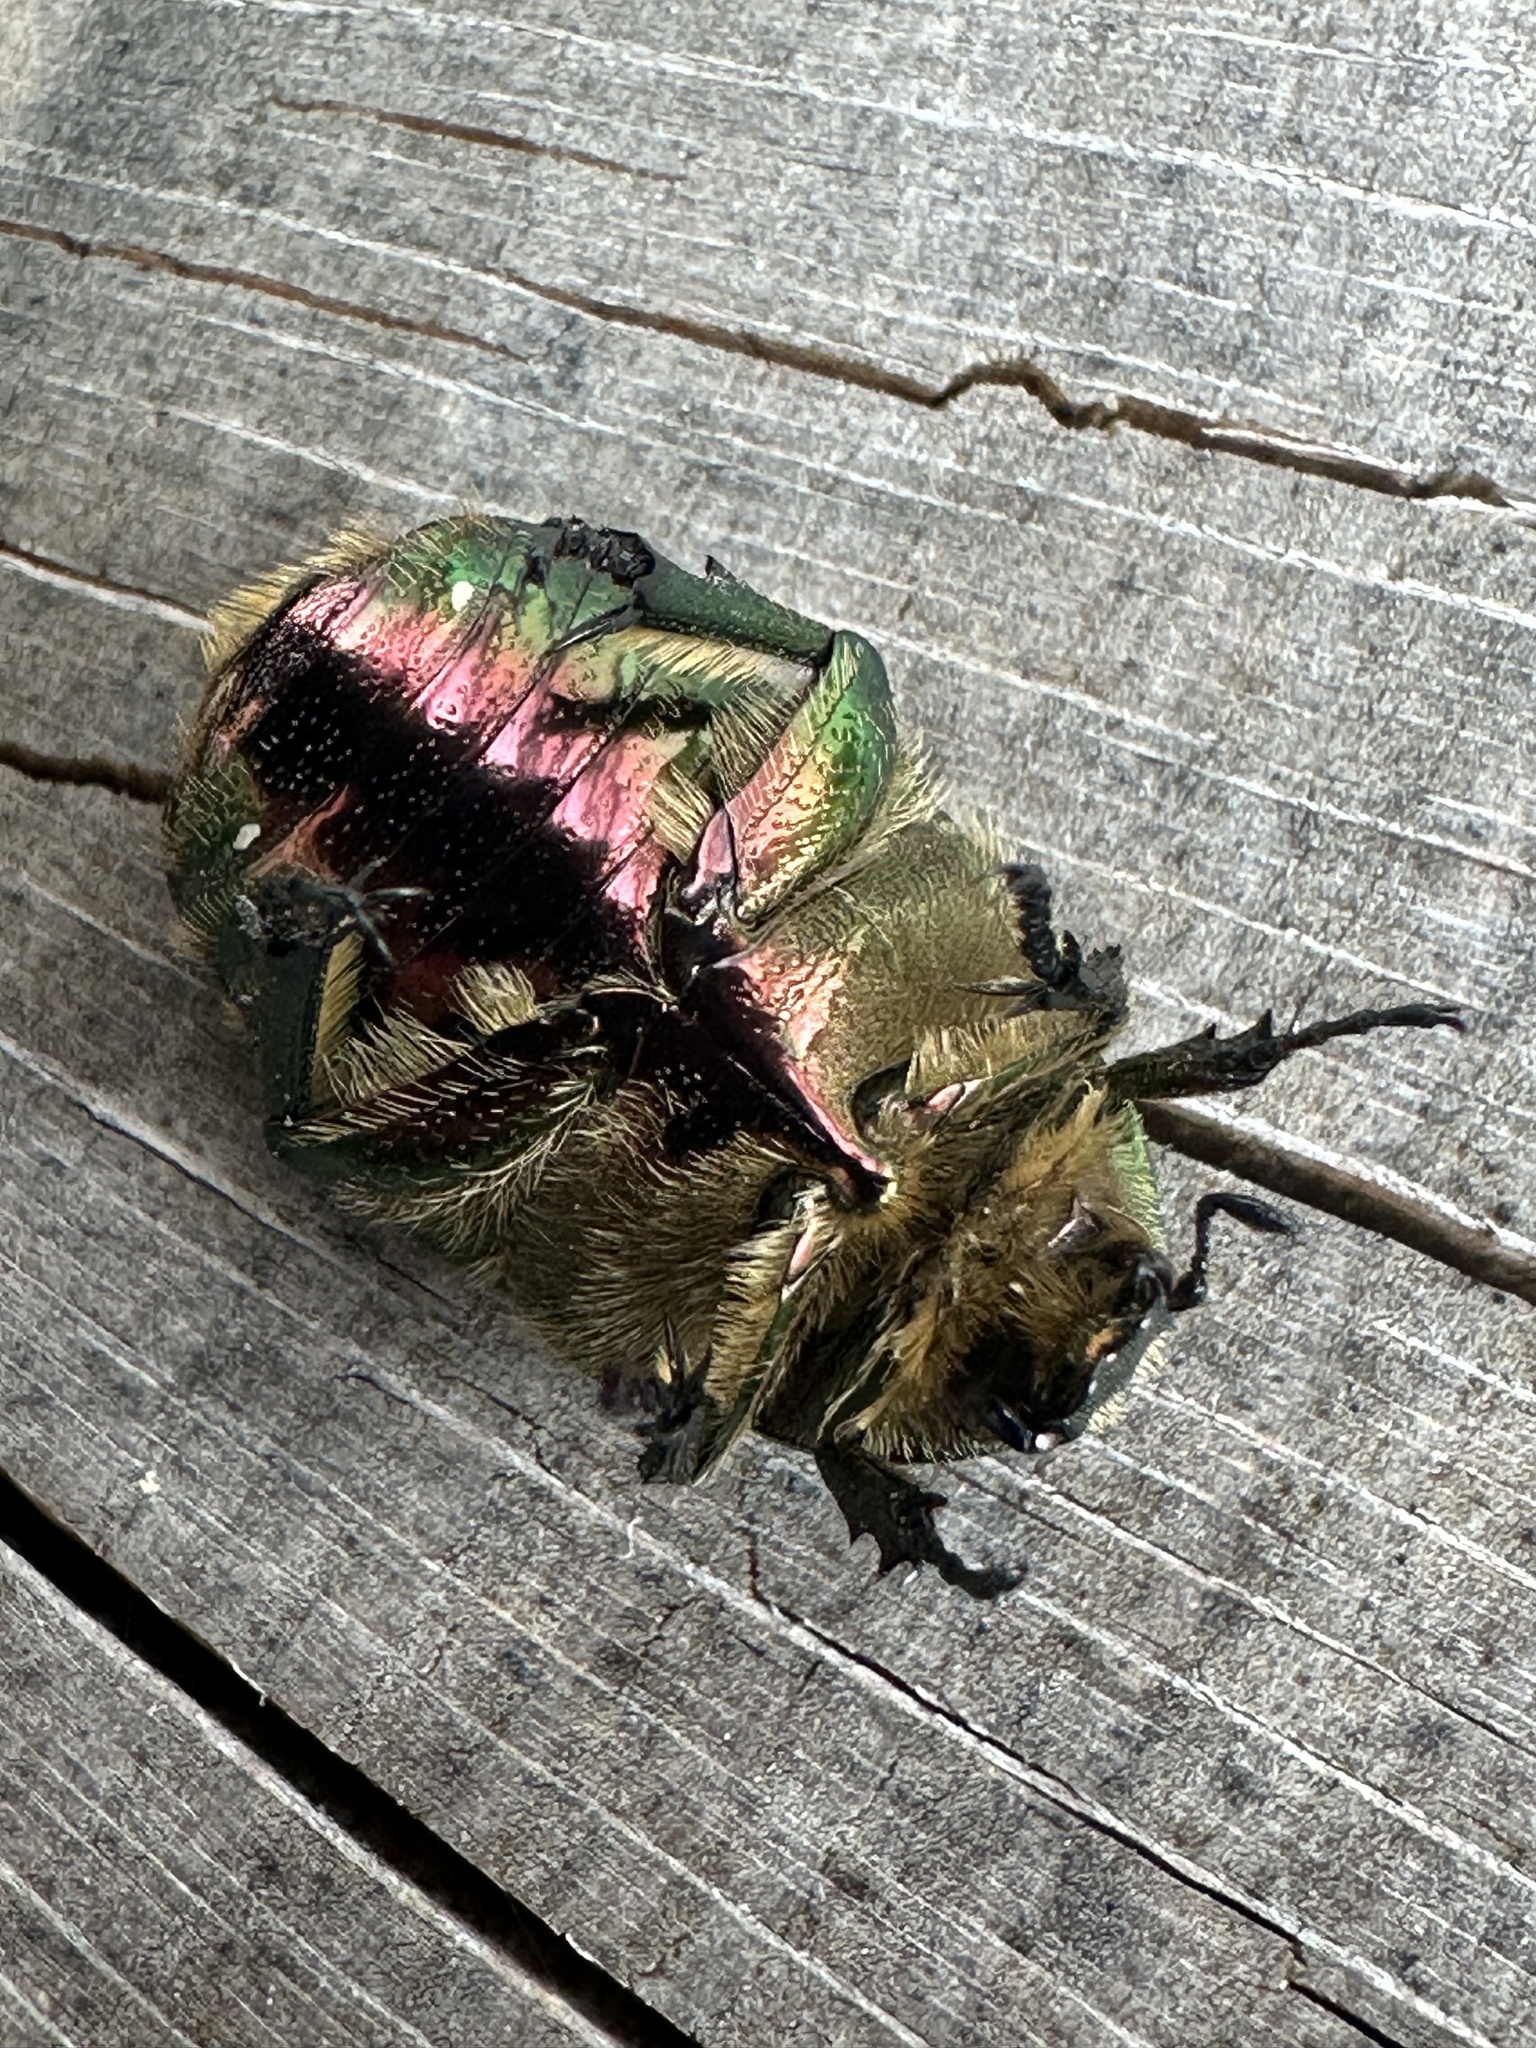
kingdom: Animalia
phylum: Arthropoda
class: Insecta
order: Coleoptera
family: Scarabaeidae
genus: Cetonia
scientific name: Cetonia aurata
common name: Rose chafer
